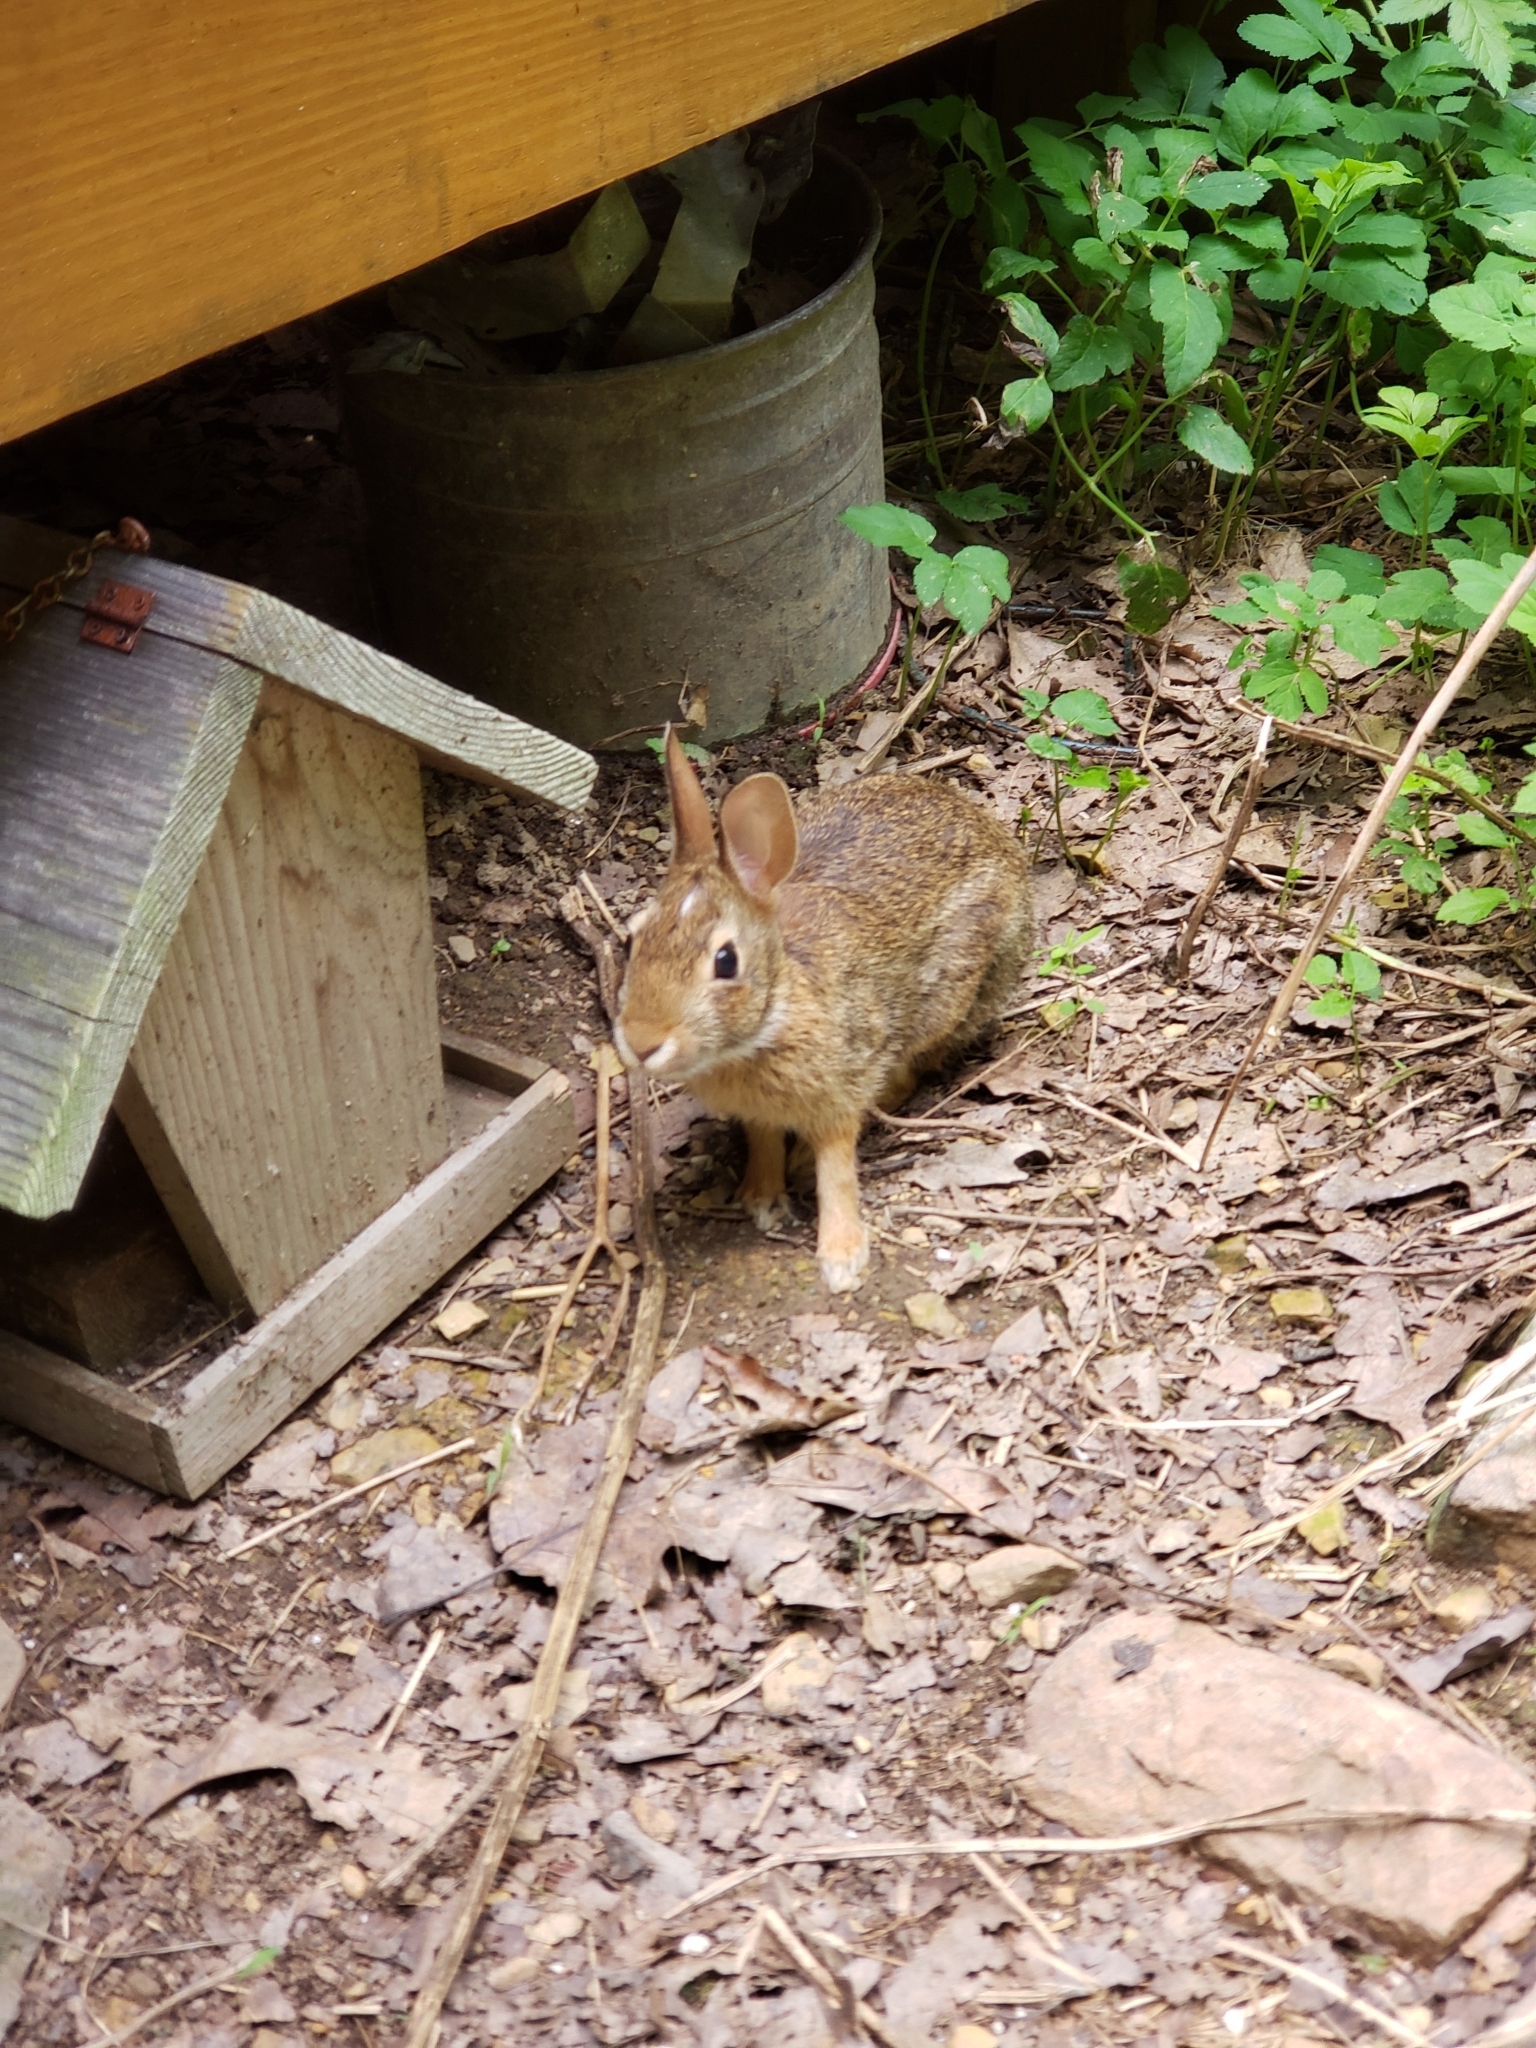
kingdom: Animalia
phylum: Chordata
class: Mammalia
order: Lagomorpha
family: Leporidae
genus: Sylvilagus
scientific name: Sylvilagus floridanus
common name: Eastern cottontail
